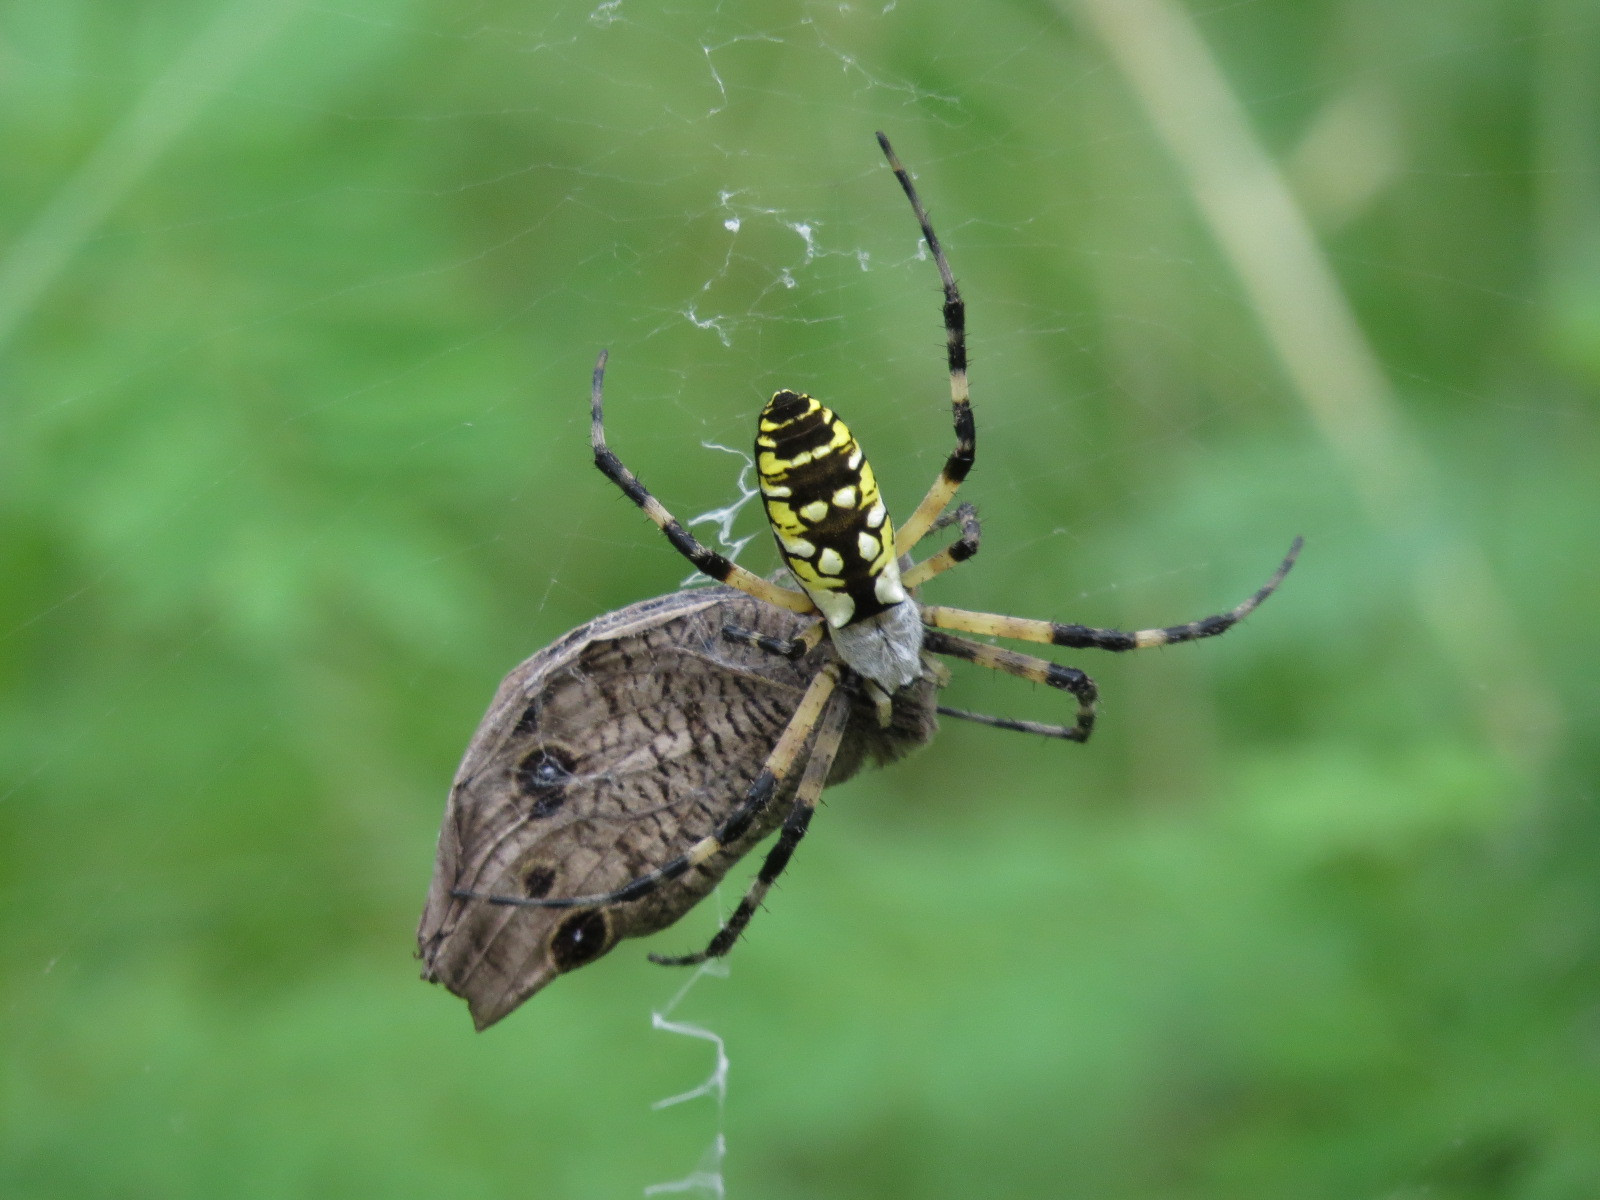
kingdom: Animalia
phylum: Arthropoda
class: Arachnida
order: Araneae
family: Araneidae
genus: Argiope
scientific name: Argiope aurantia
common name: Orb weavers
